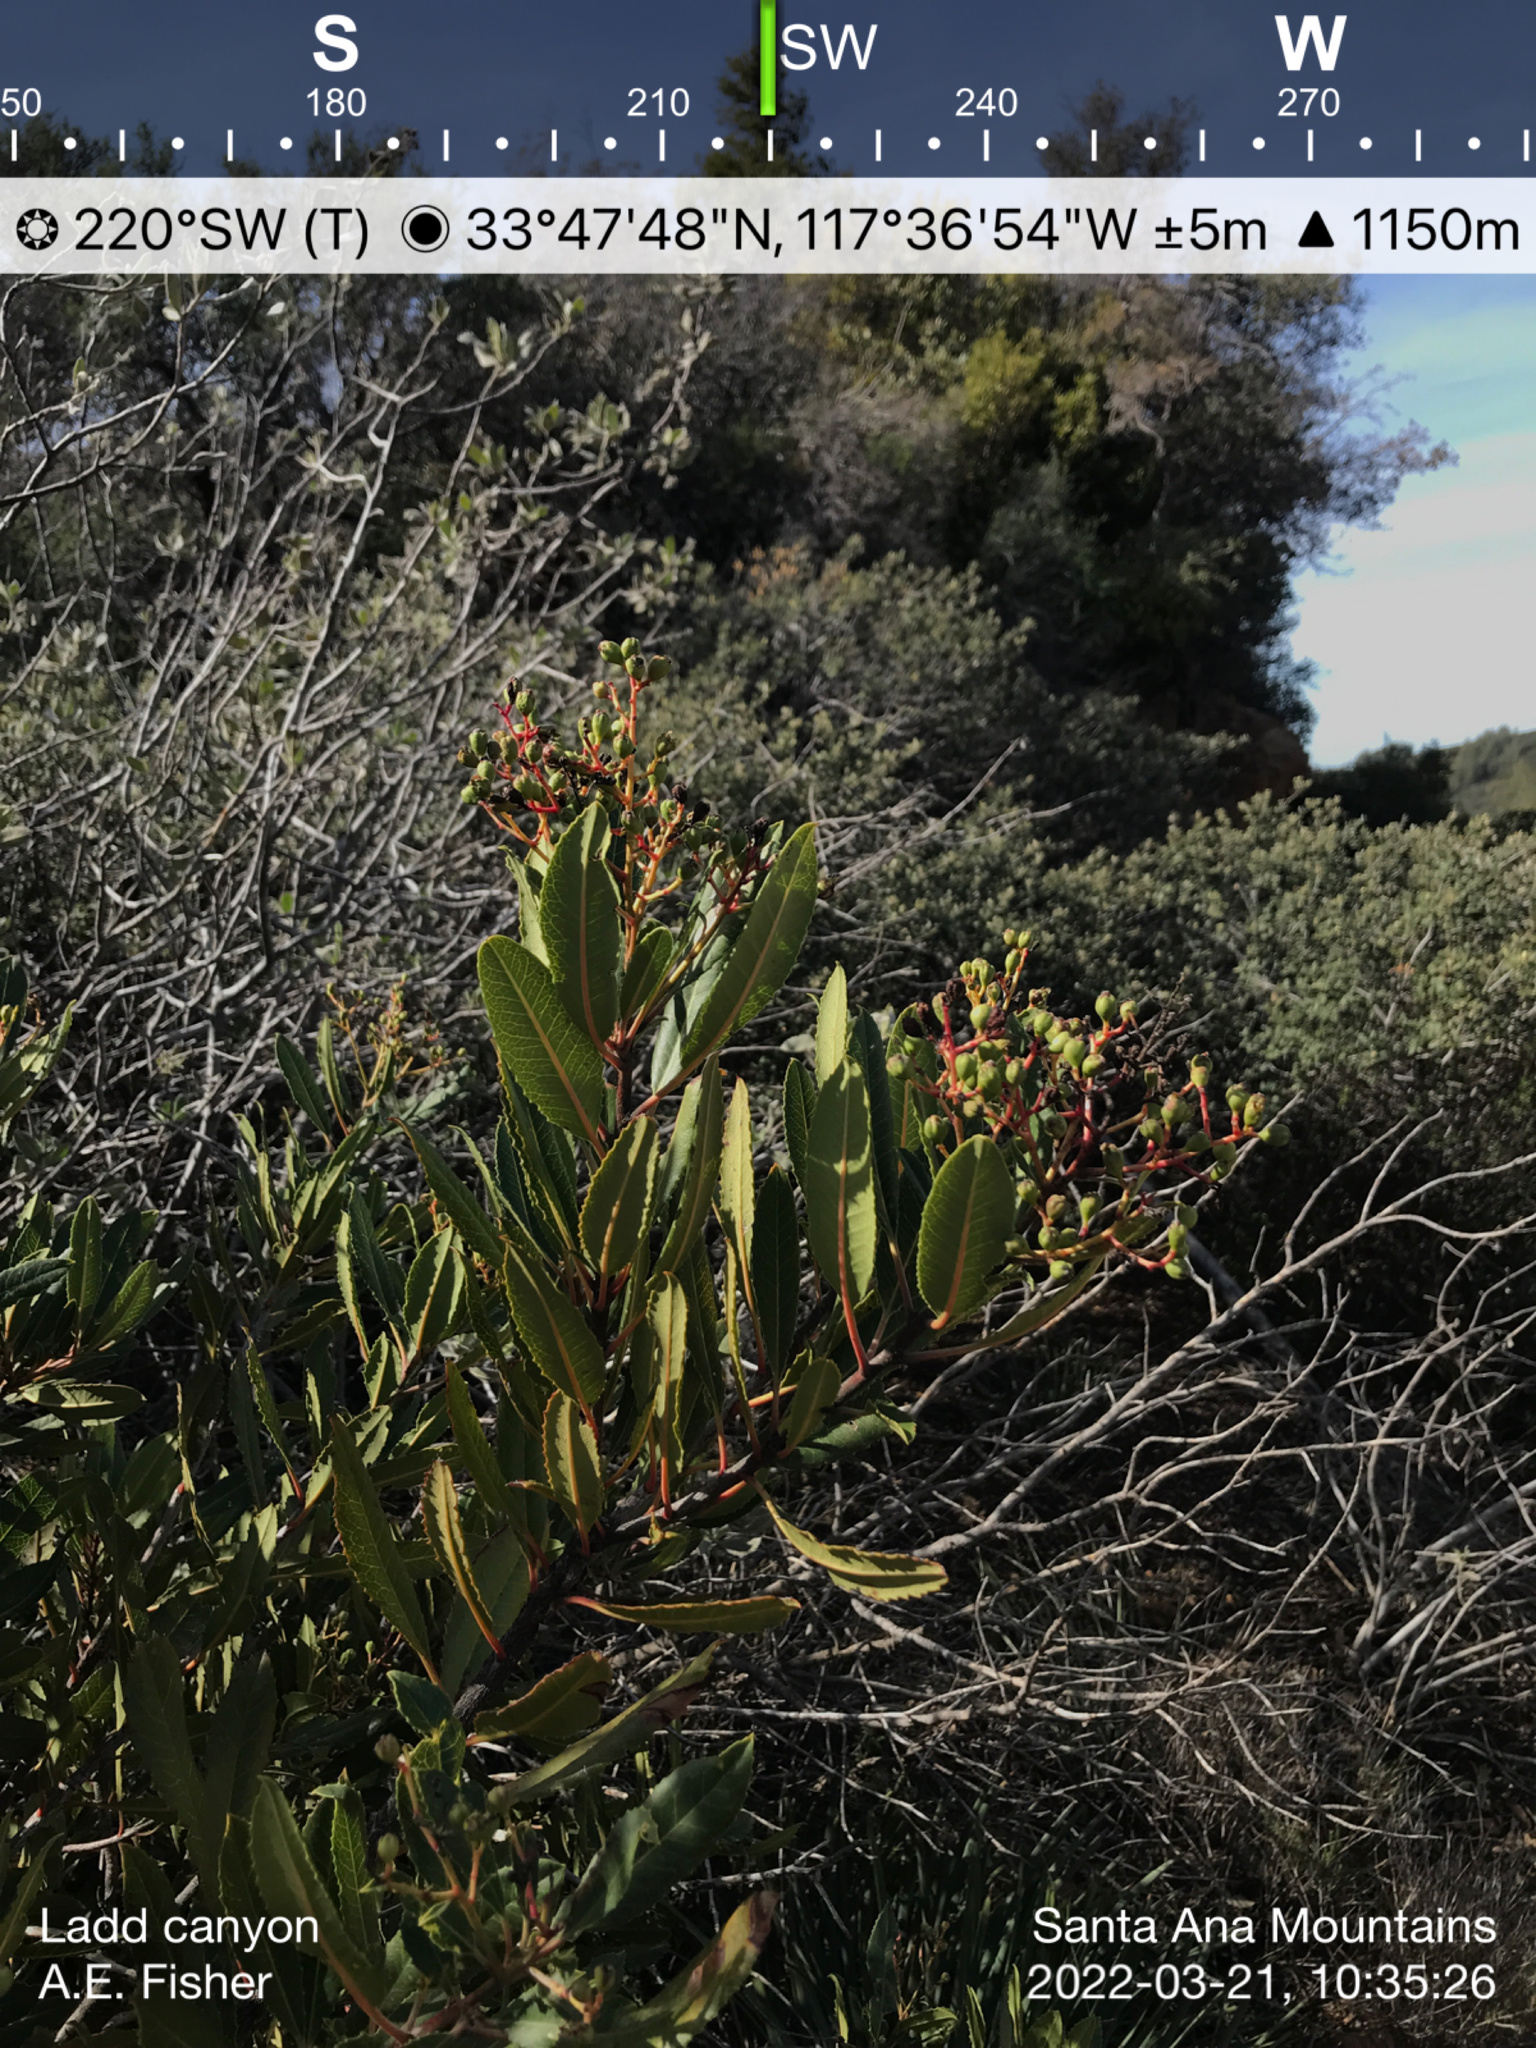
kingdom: Plantae
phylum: Tracheophyta
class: Magnoliopsida
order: Rosales
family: Rosaceae
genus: Heteromeles
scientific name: Heteromeles arbutifolia
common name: California-holly
